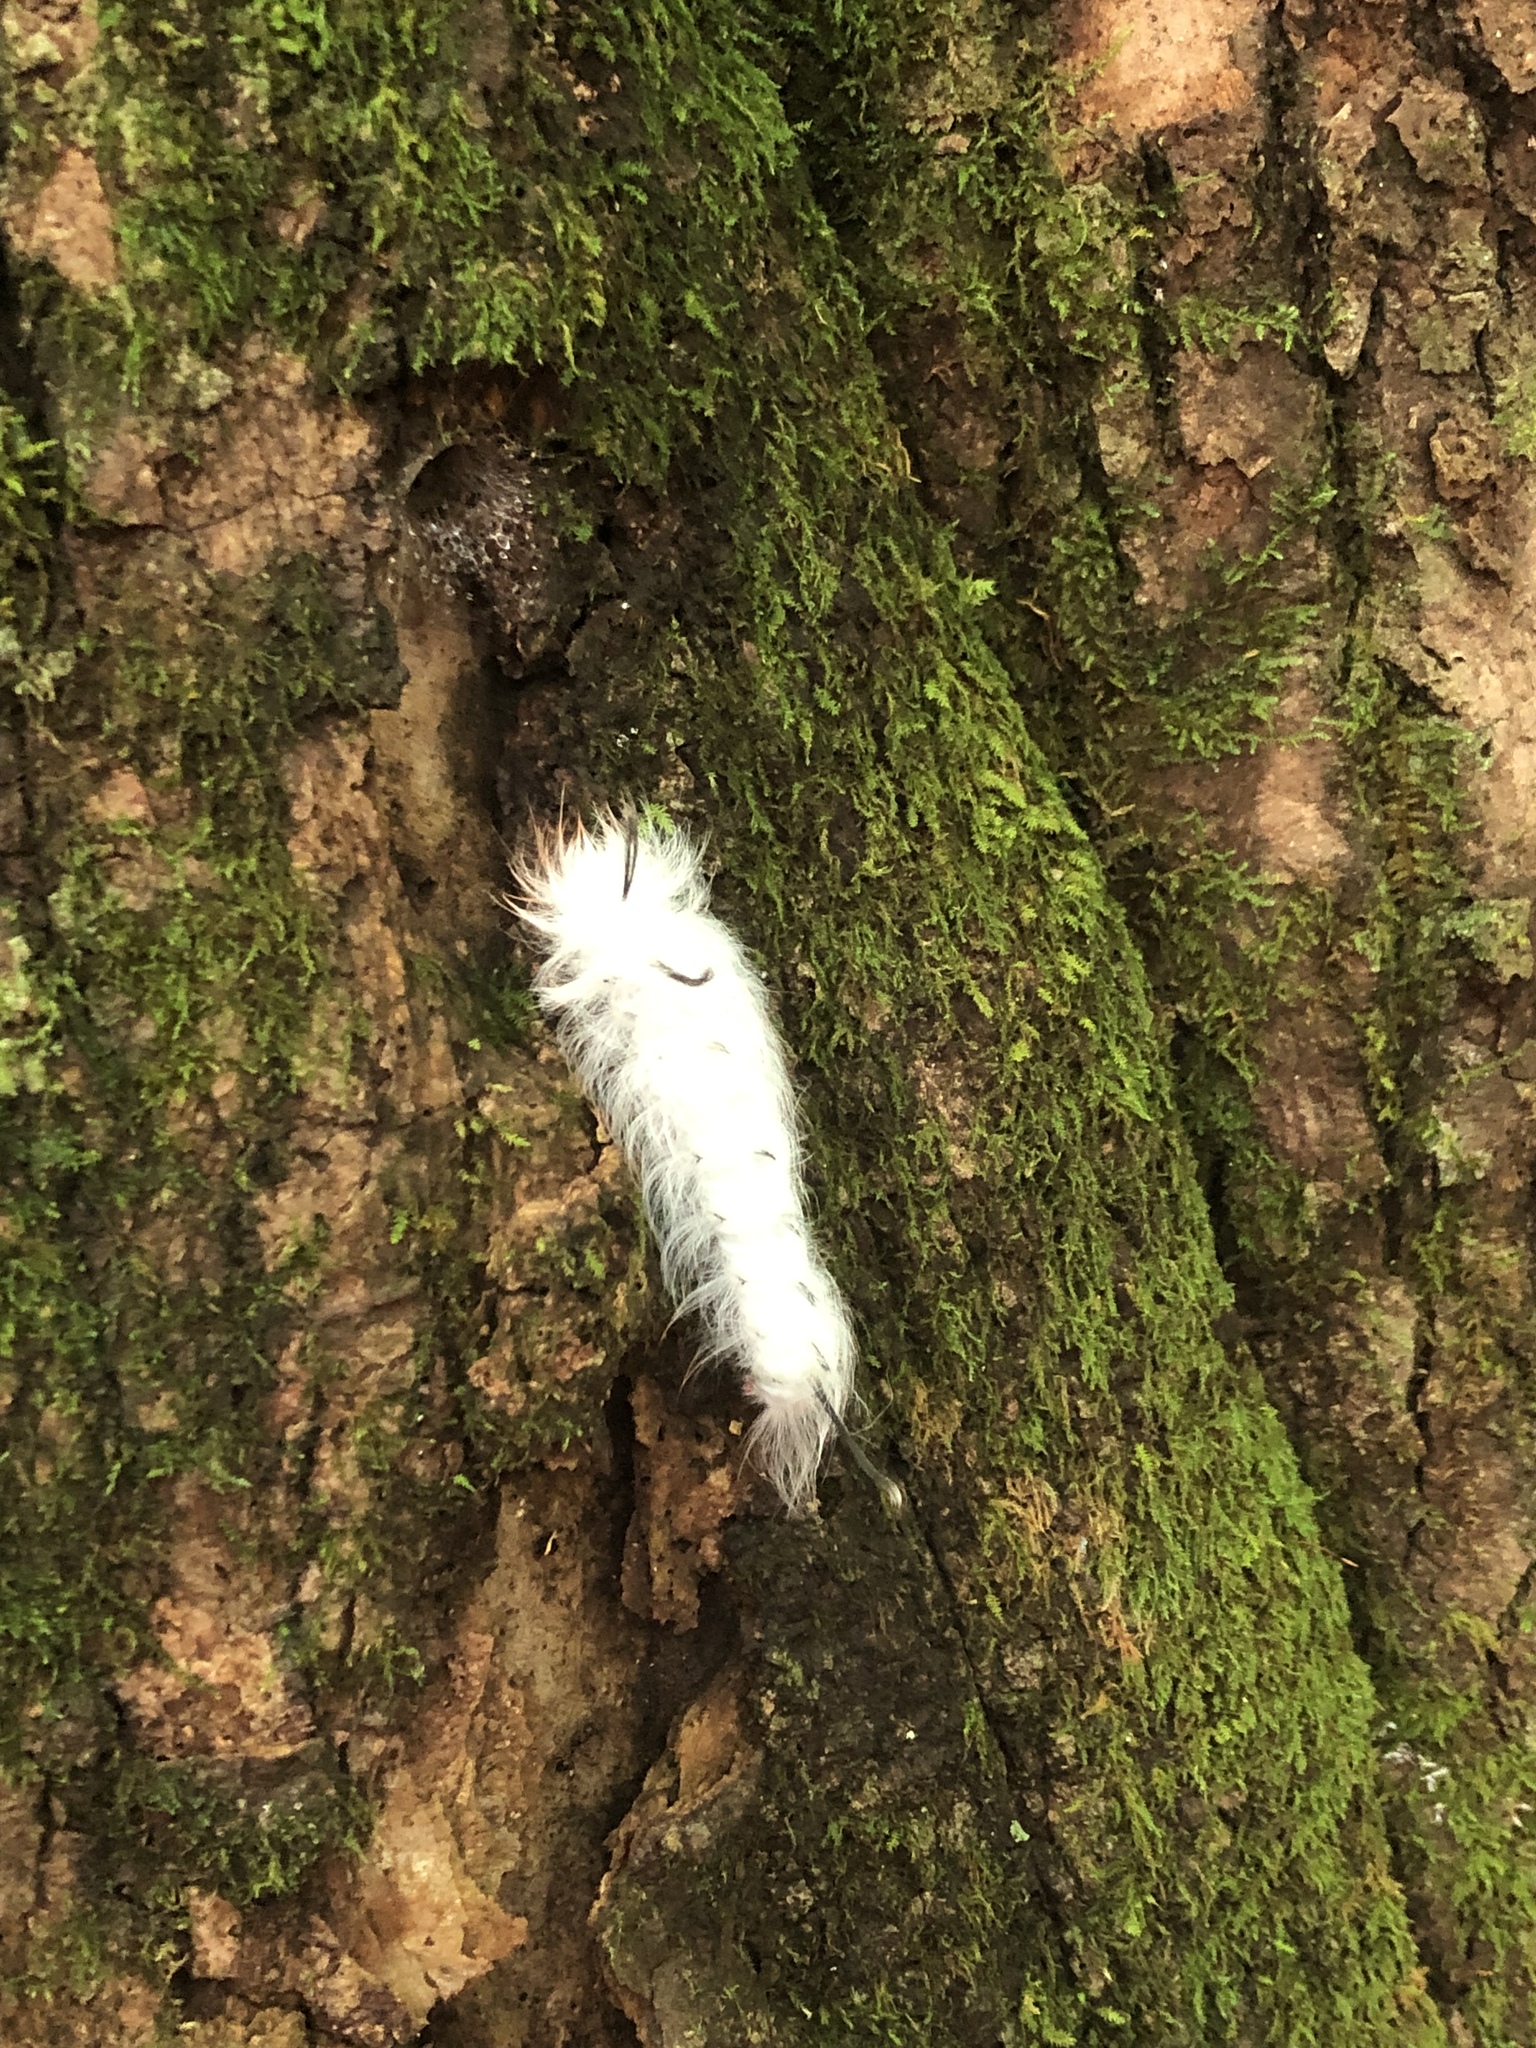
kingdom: Animalia
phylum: Arthropoda
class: Insecta
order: Lepidoptera
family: Apatelodidae
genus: Hygrochroa
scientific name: Hygrochroa Apatelodes torrefacta
